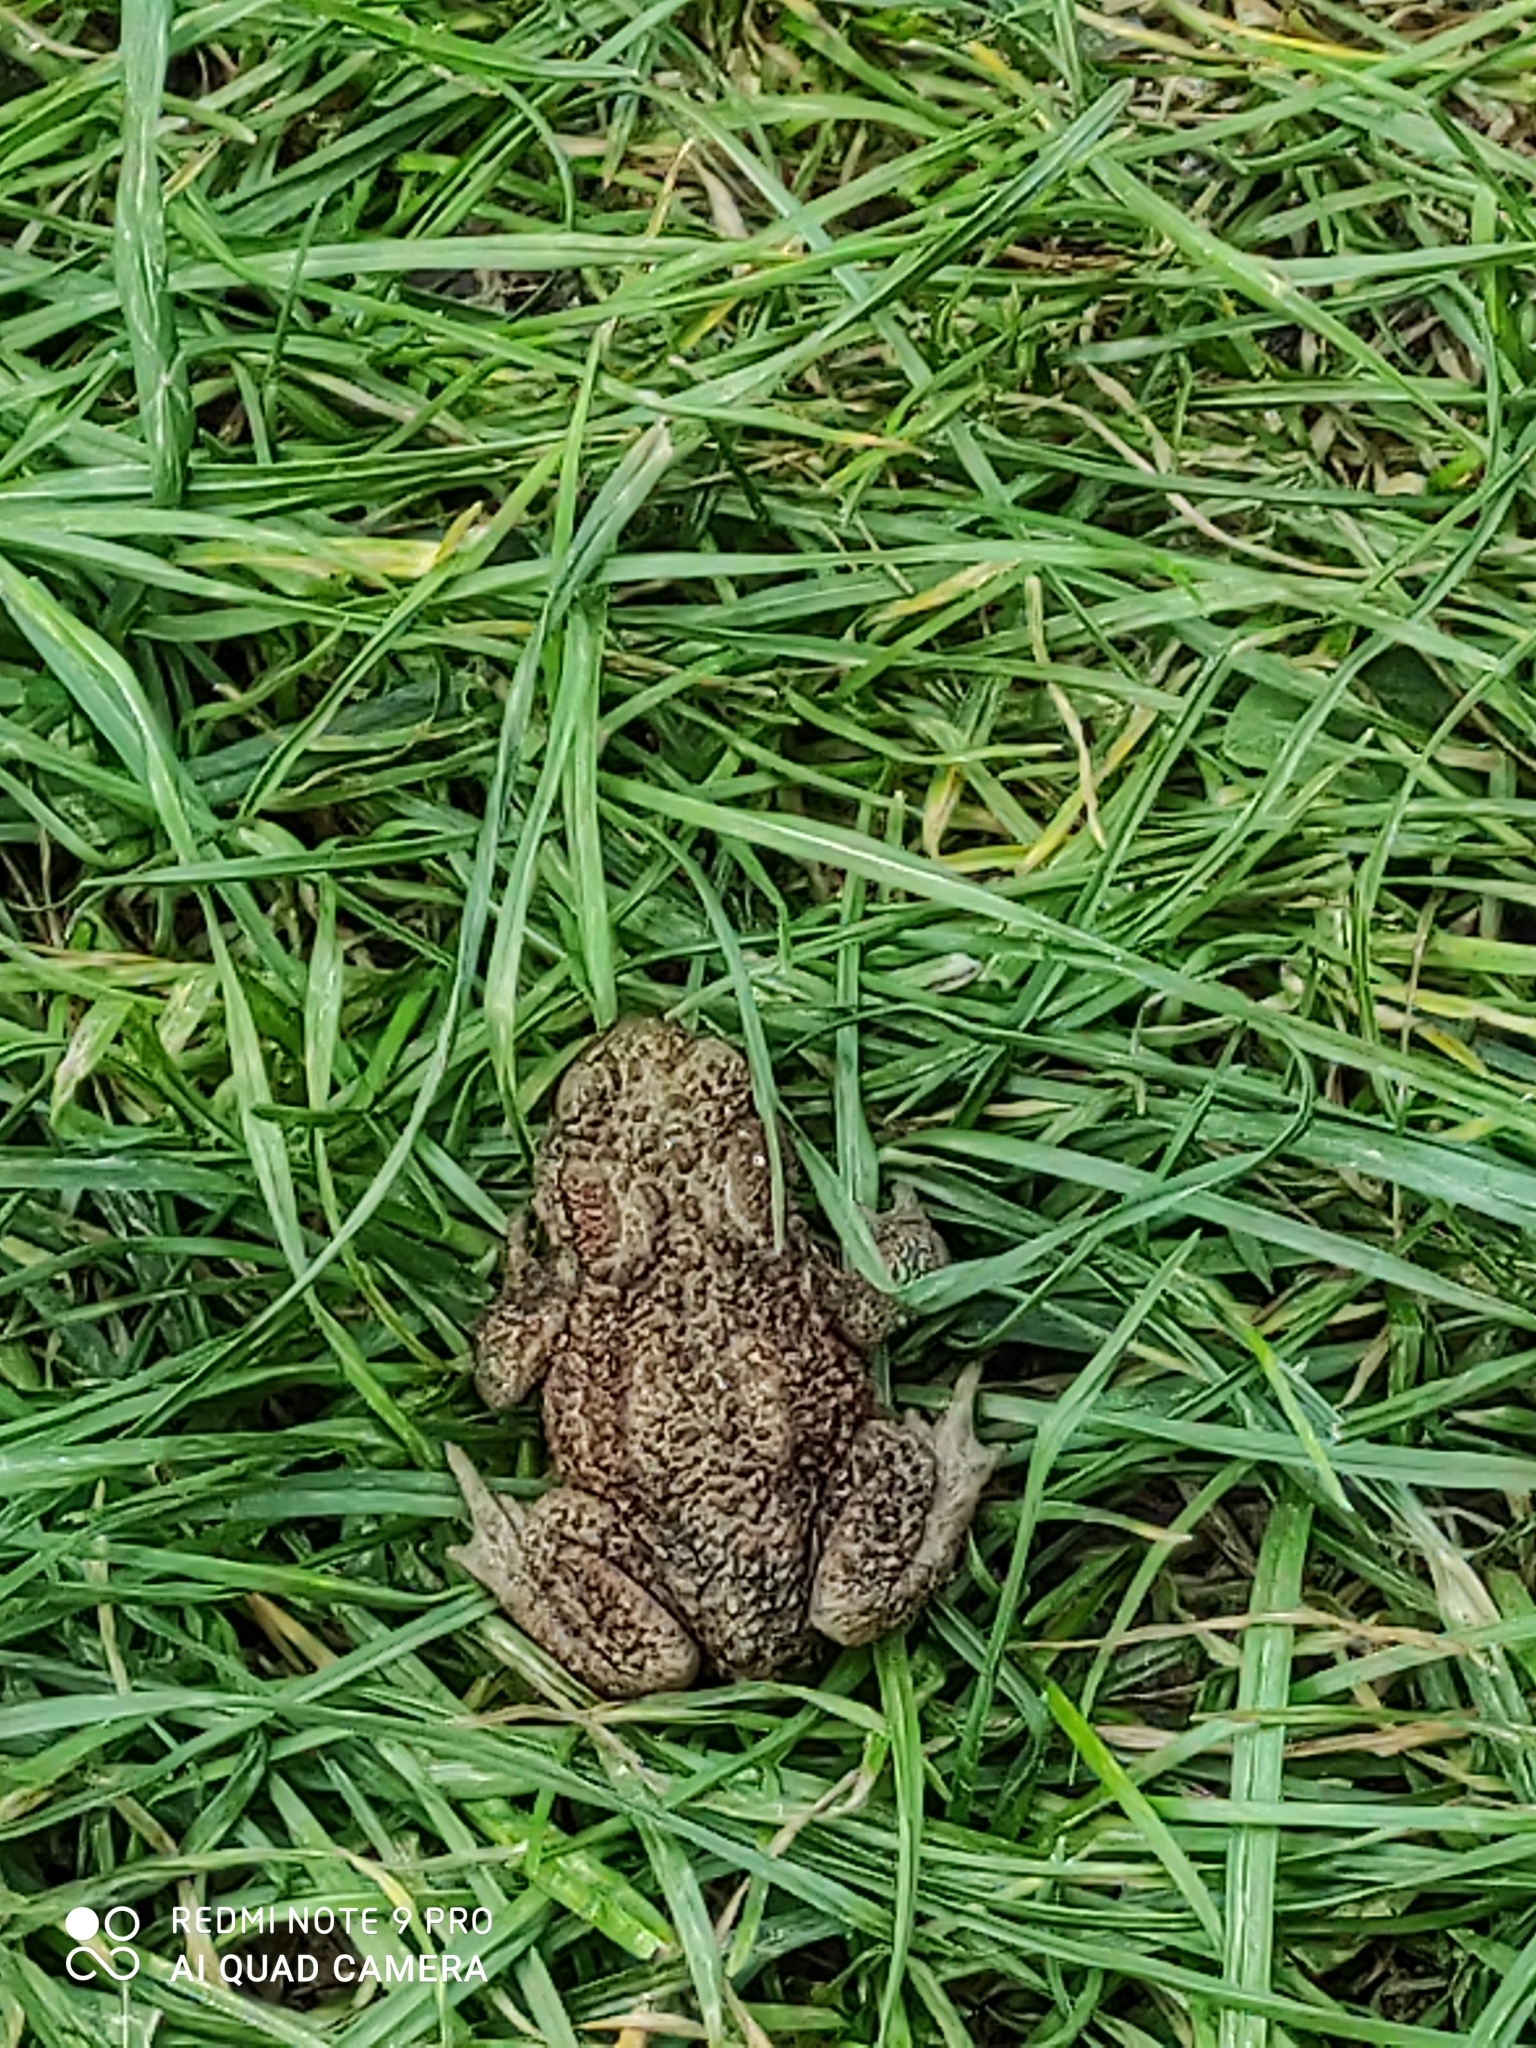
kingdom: Animalia
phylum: Chordata
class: Amphibia
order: Anura
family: Bufonidae
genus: Bufo
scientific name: Bufo bufo
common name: Common toad
